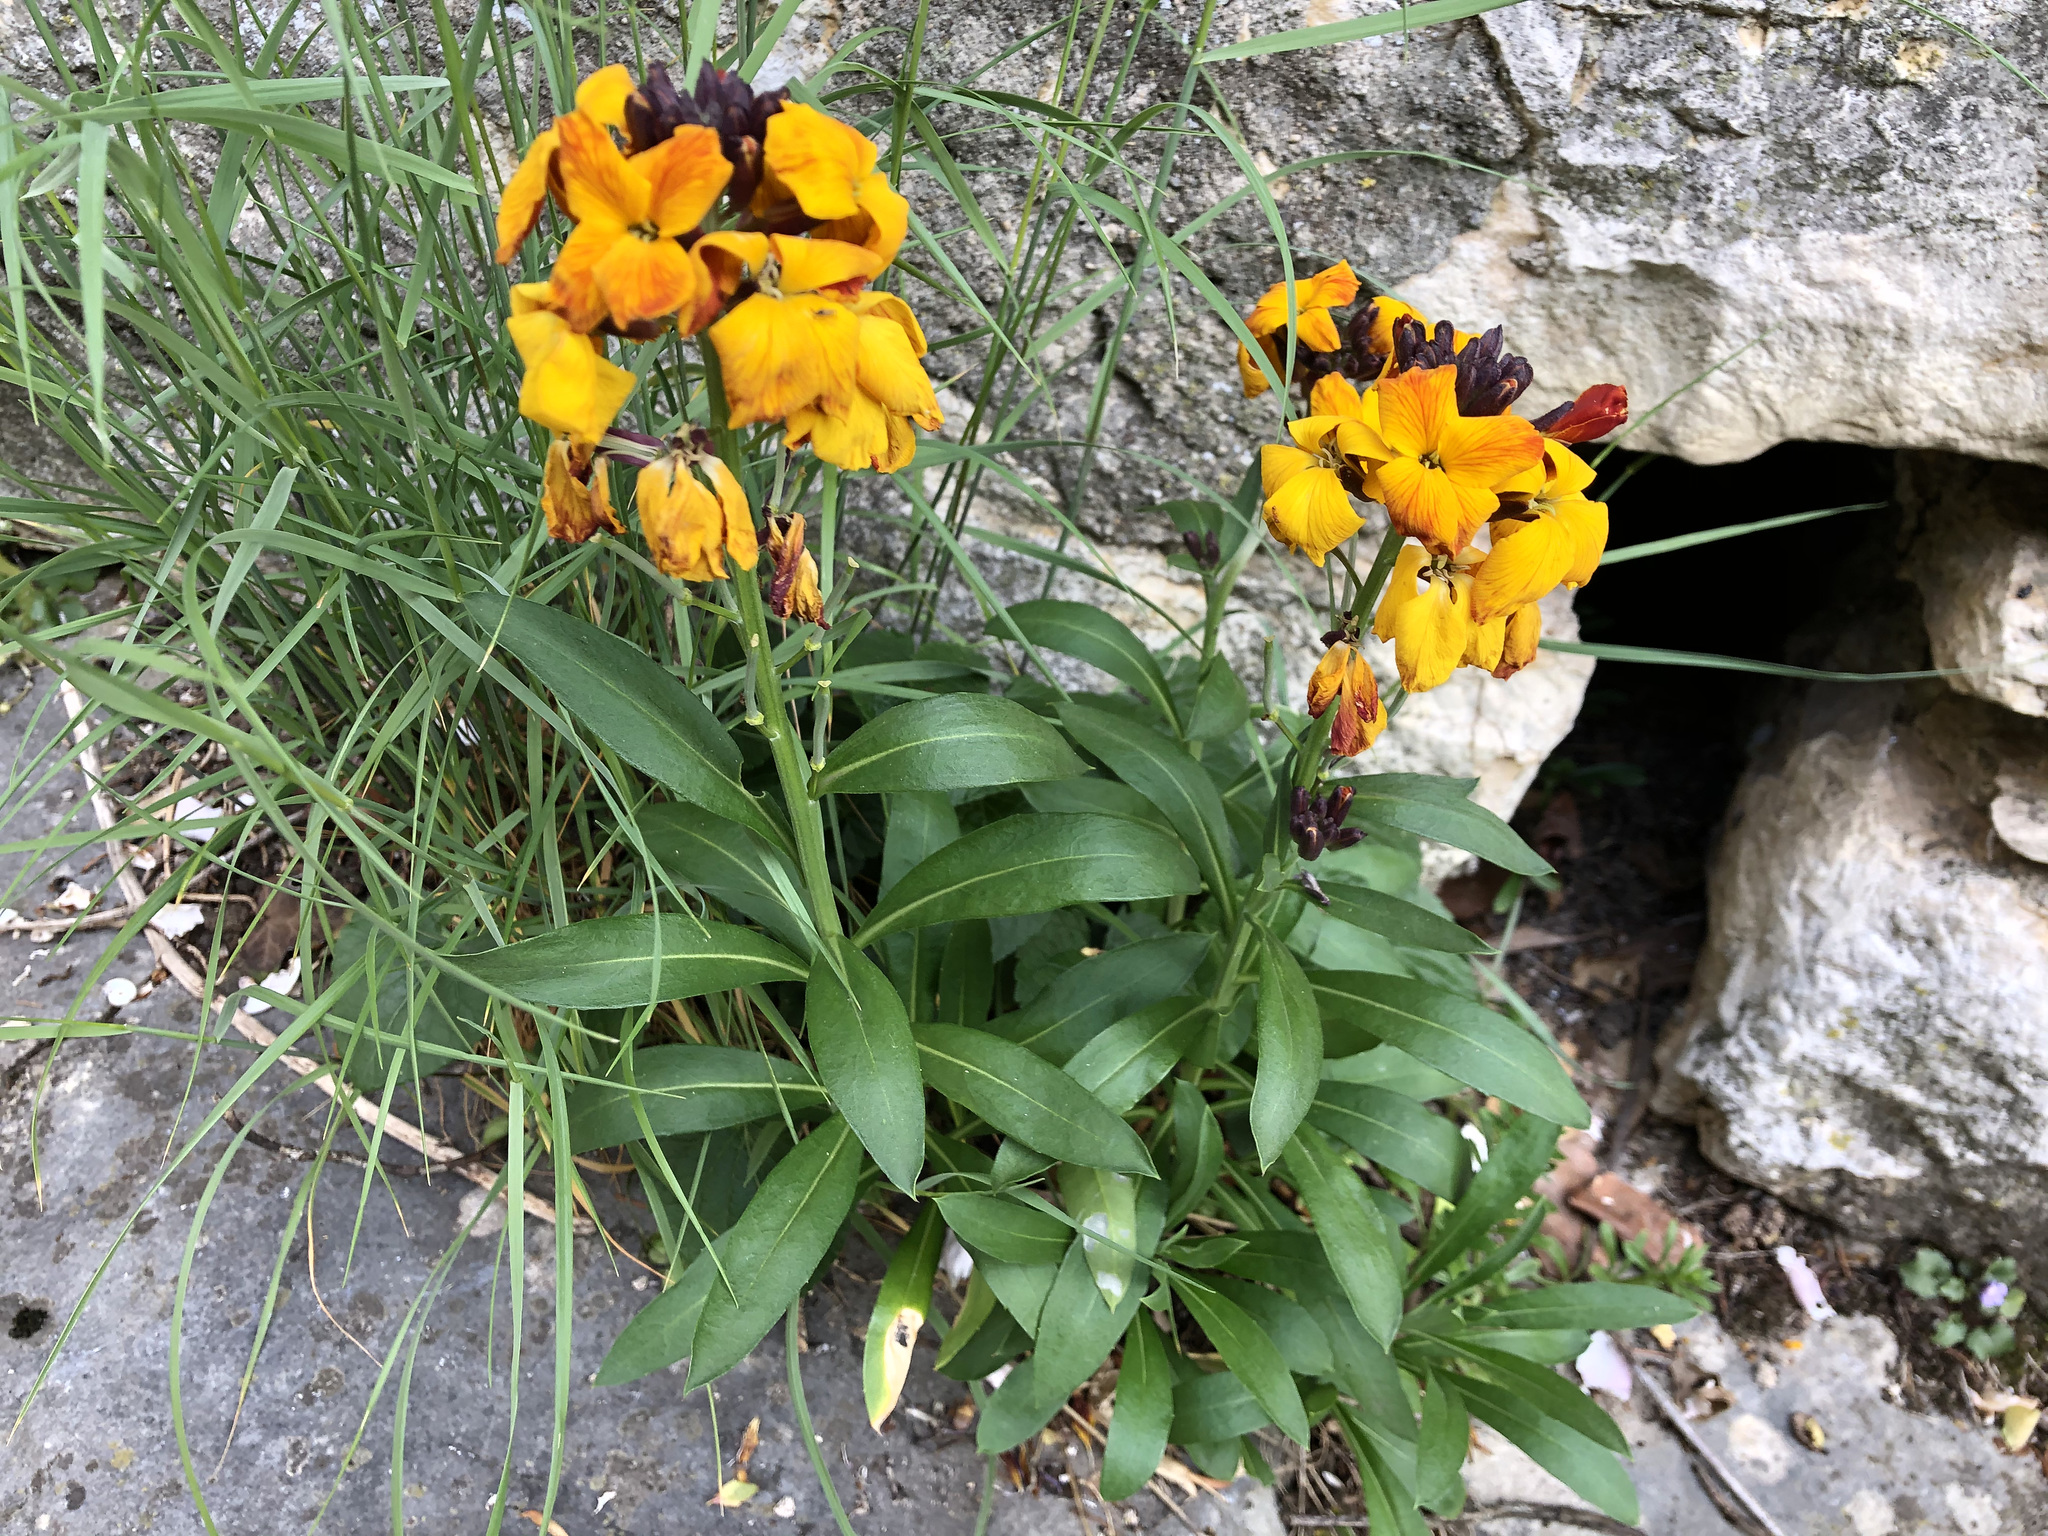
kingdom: Plantae
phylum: Tracheophyta
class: Magnoliopsida
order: Brassicales
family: Brassicaceae
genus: Erysimum
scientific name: Erysimum cheiri
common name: Wallflower
